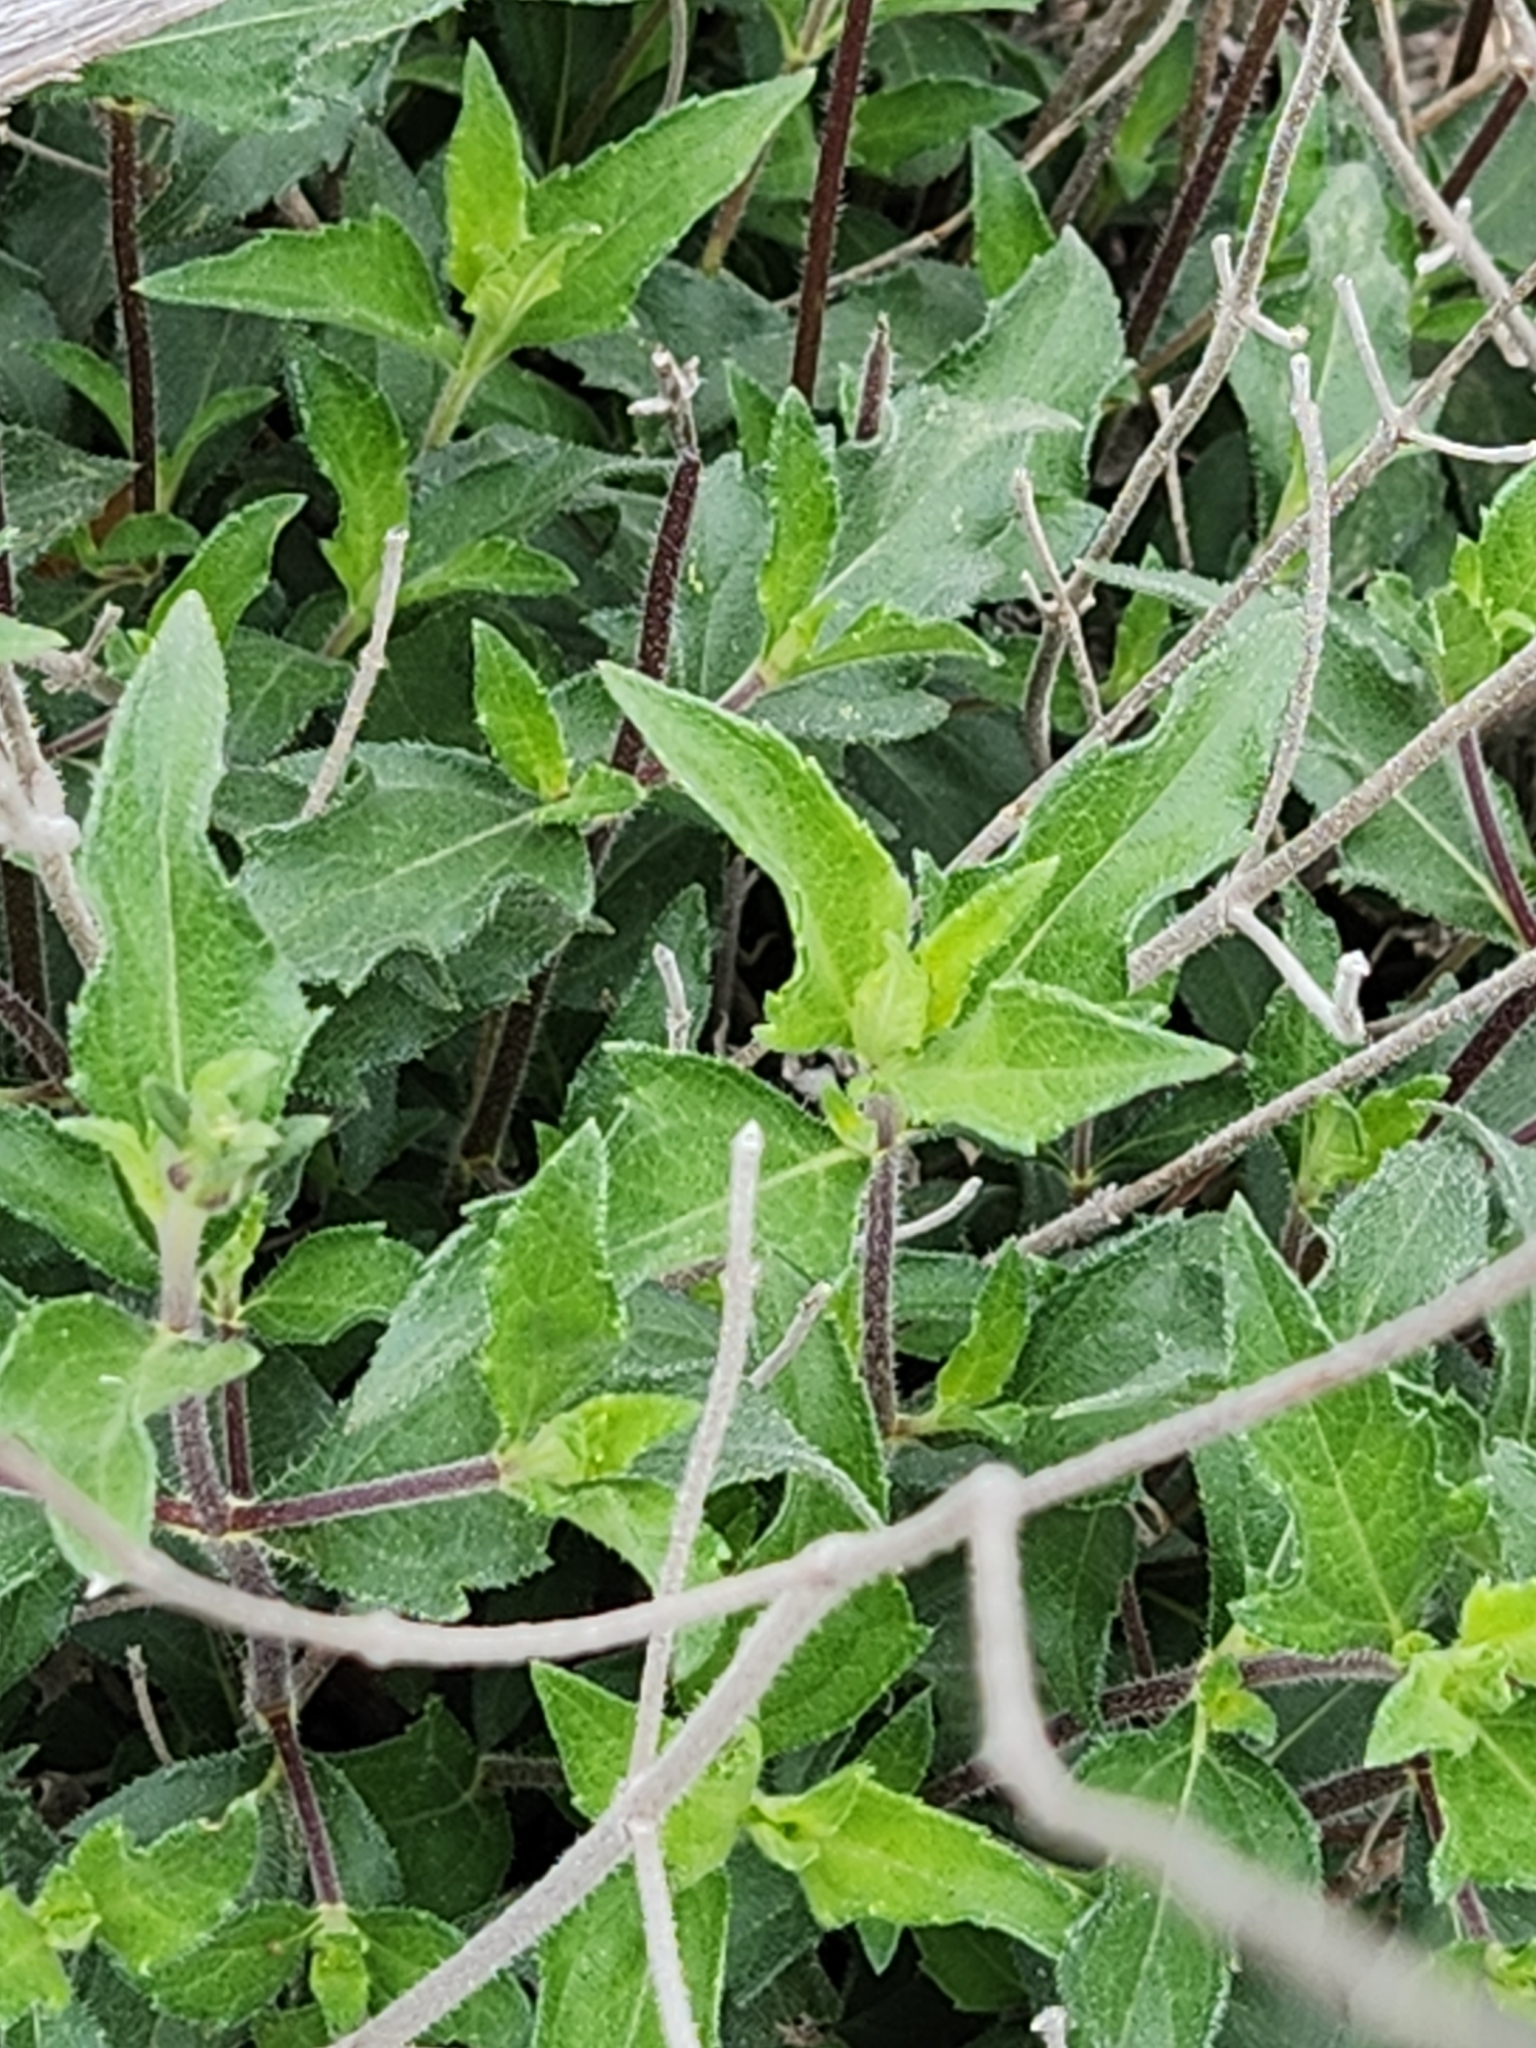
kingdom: Plantae
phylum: Tracheophyta
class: Magnoliopsida
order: Asterales
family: Asteraceae
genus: Wedelia
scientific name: Wedelia acapulcensis
